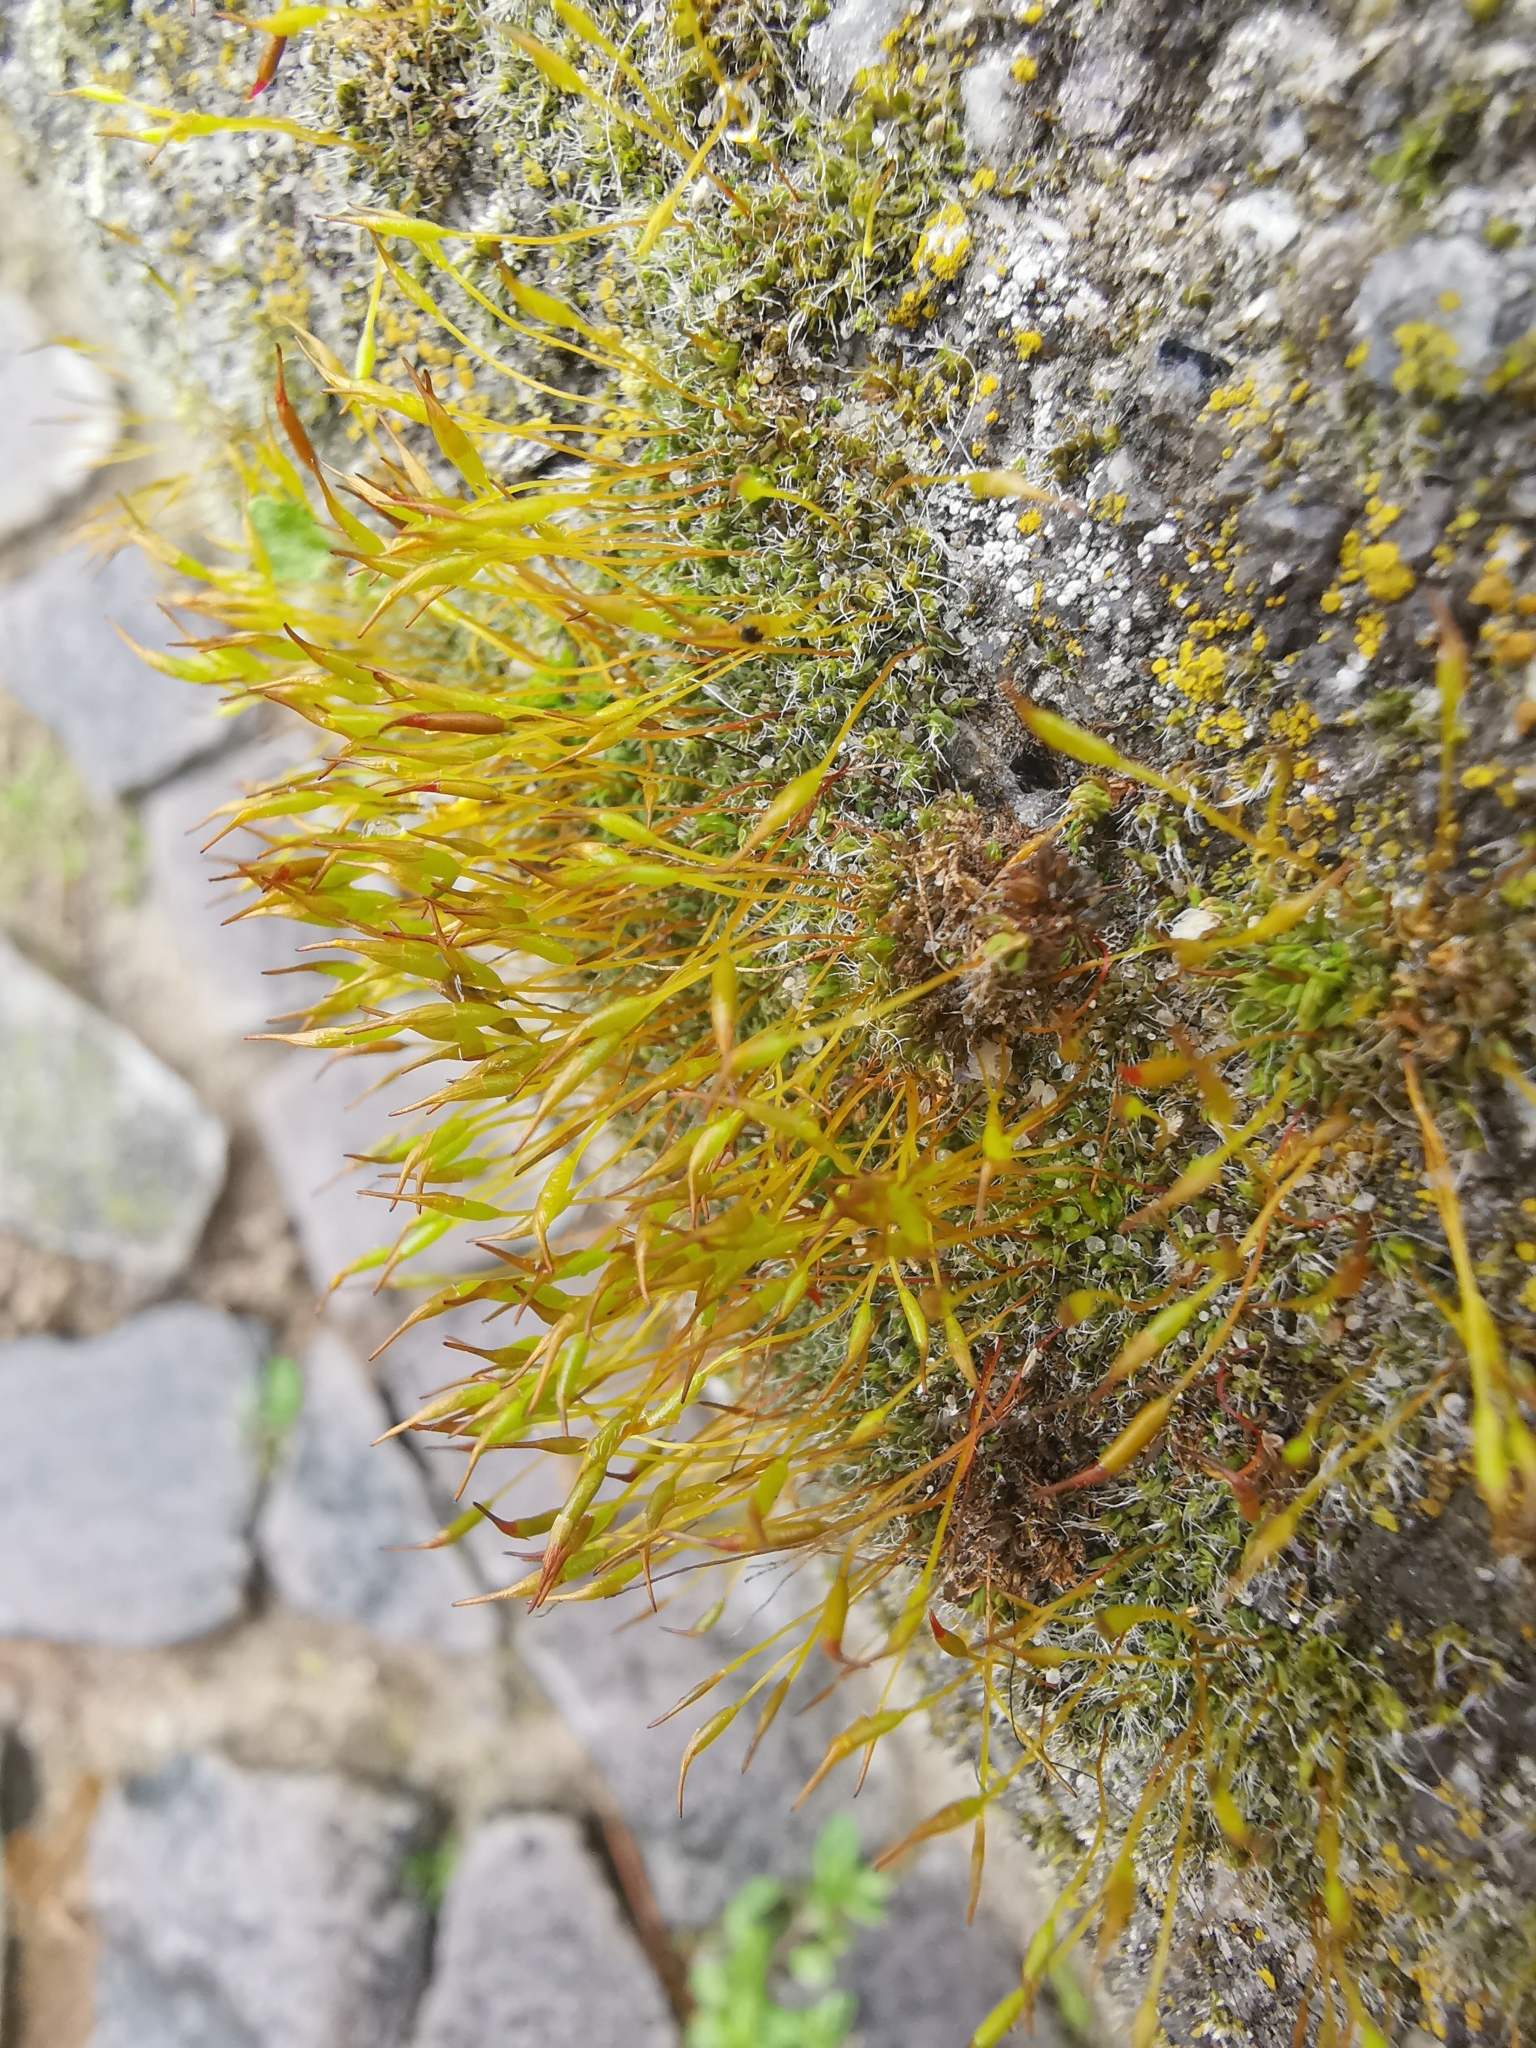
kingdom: Plantae
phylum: Bryophyta
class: Bryopsida
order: Pottiales
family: Pottiaceae
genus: Tortula
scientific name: Tortula muralis
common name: Wall screw-moss
